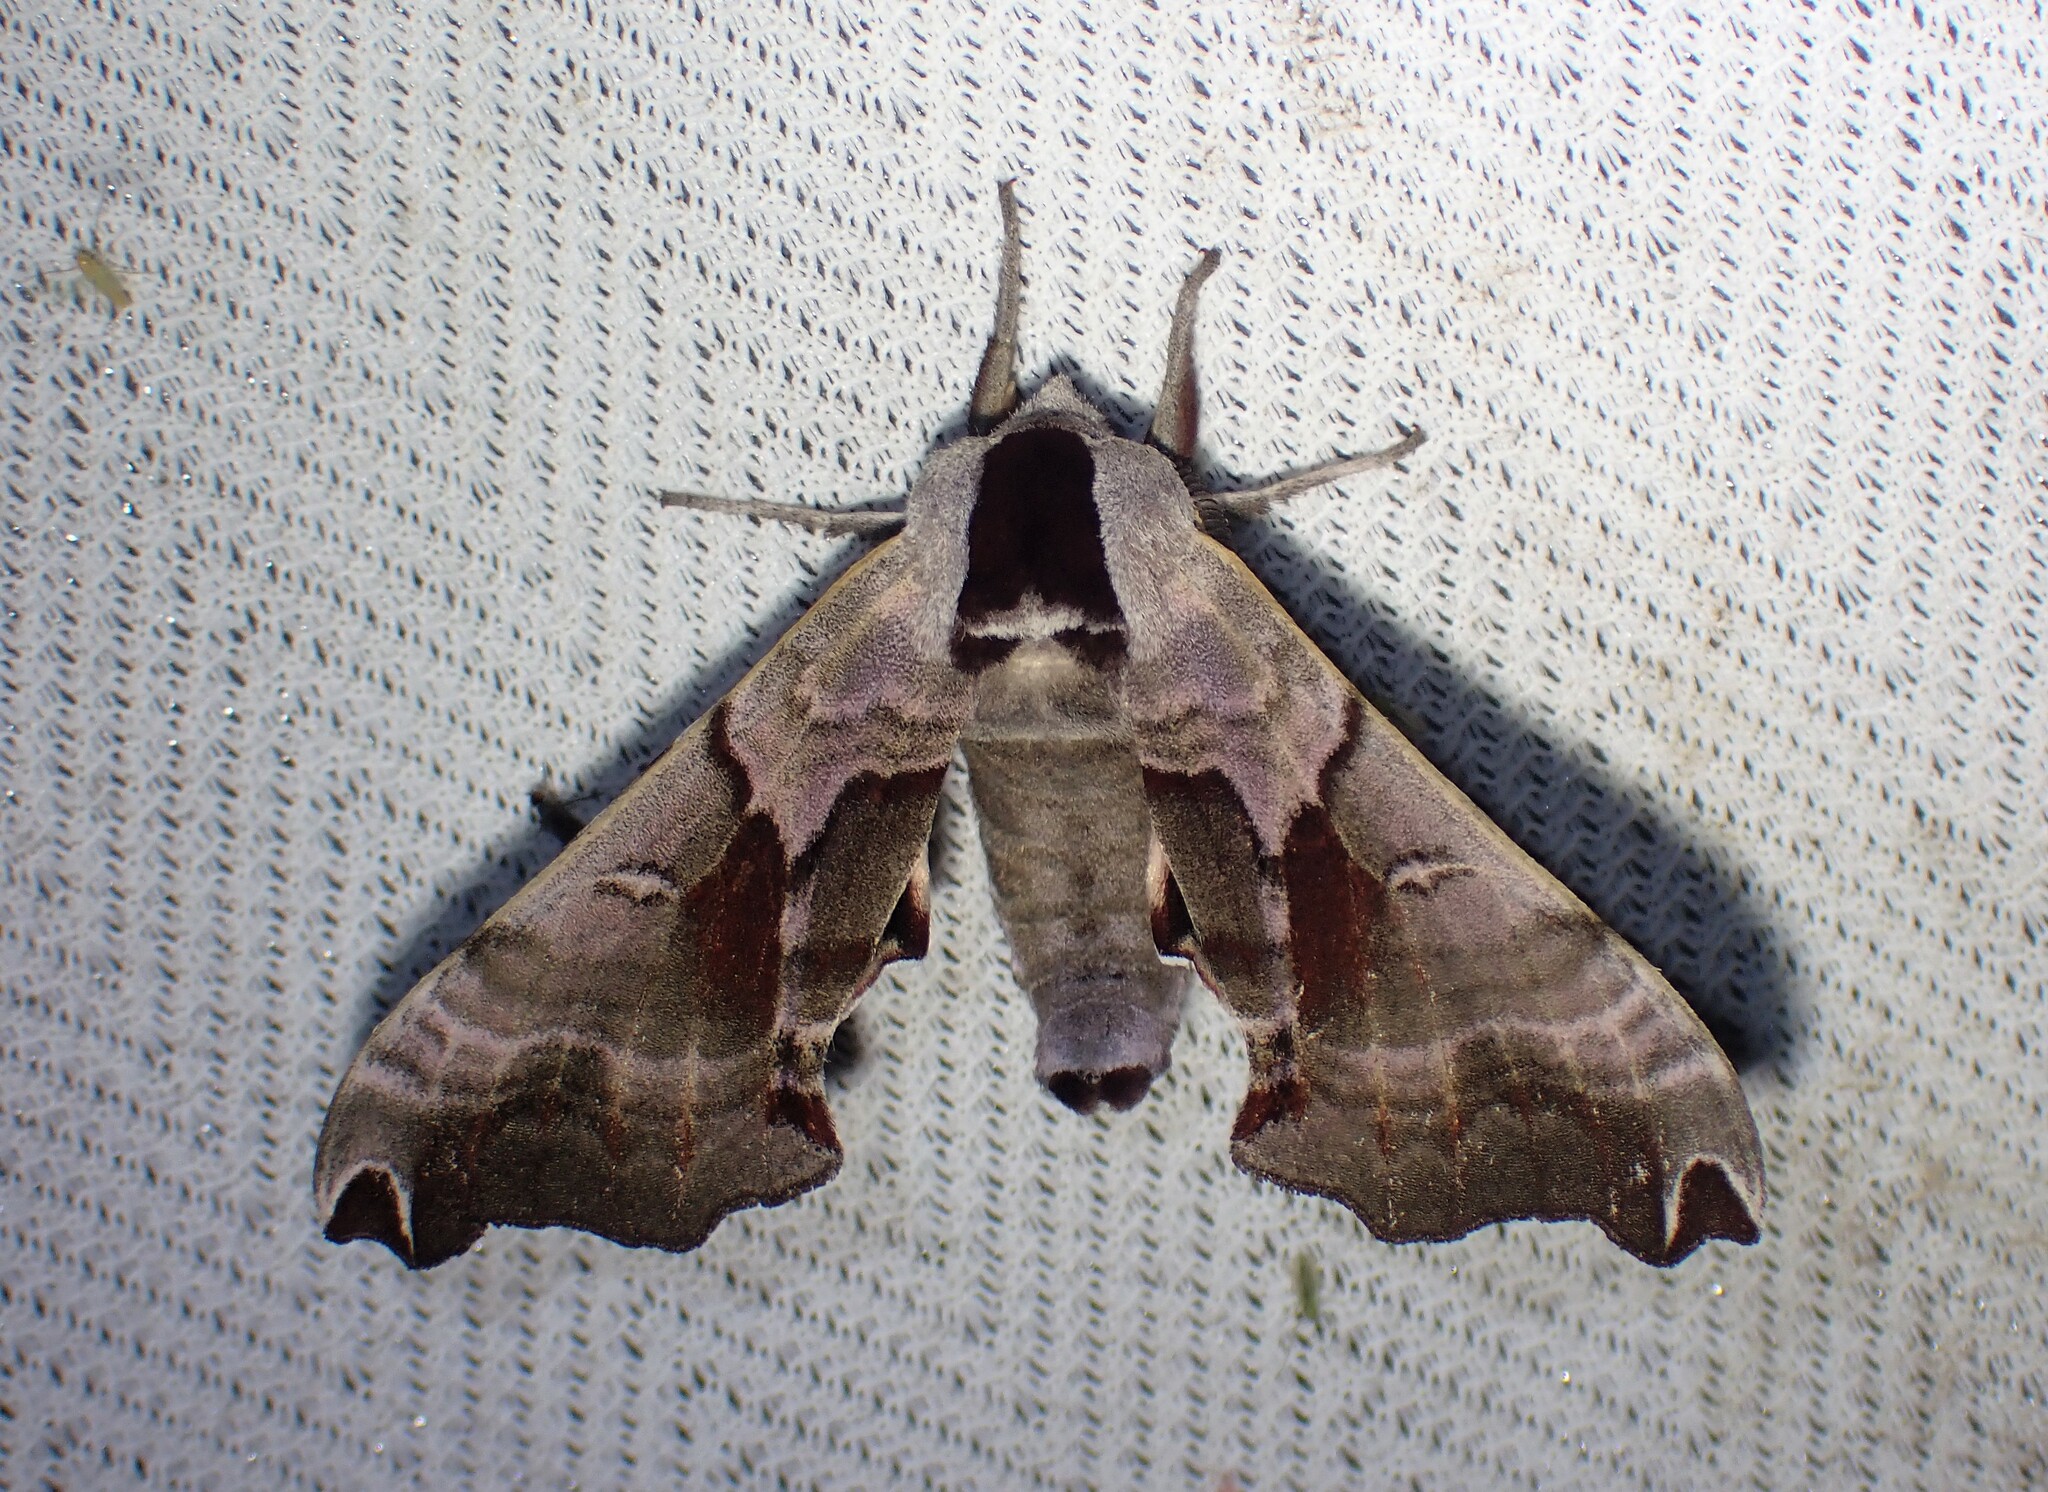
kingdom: Animalia
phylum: Arthropoda
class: Insecta
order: Lepidoptera
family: Sphingidae
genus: Smerinthus
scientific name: Smerinthus jamaicensis
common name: Twin spotted sphinx
